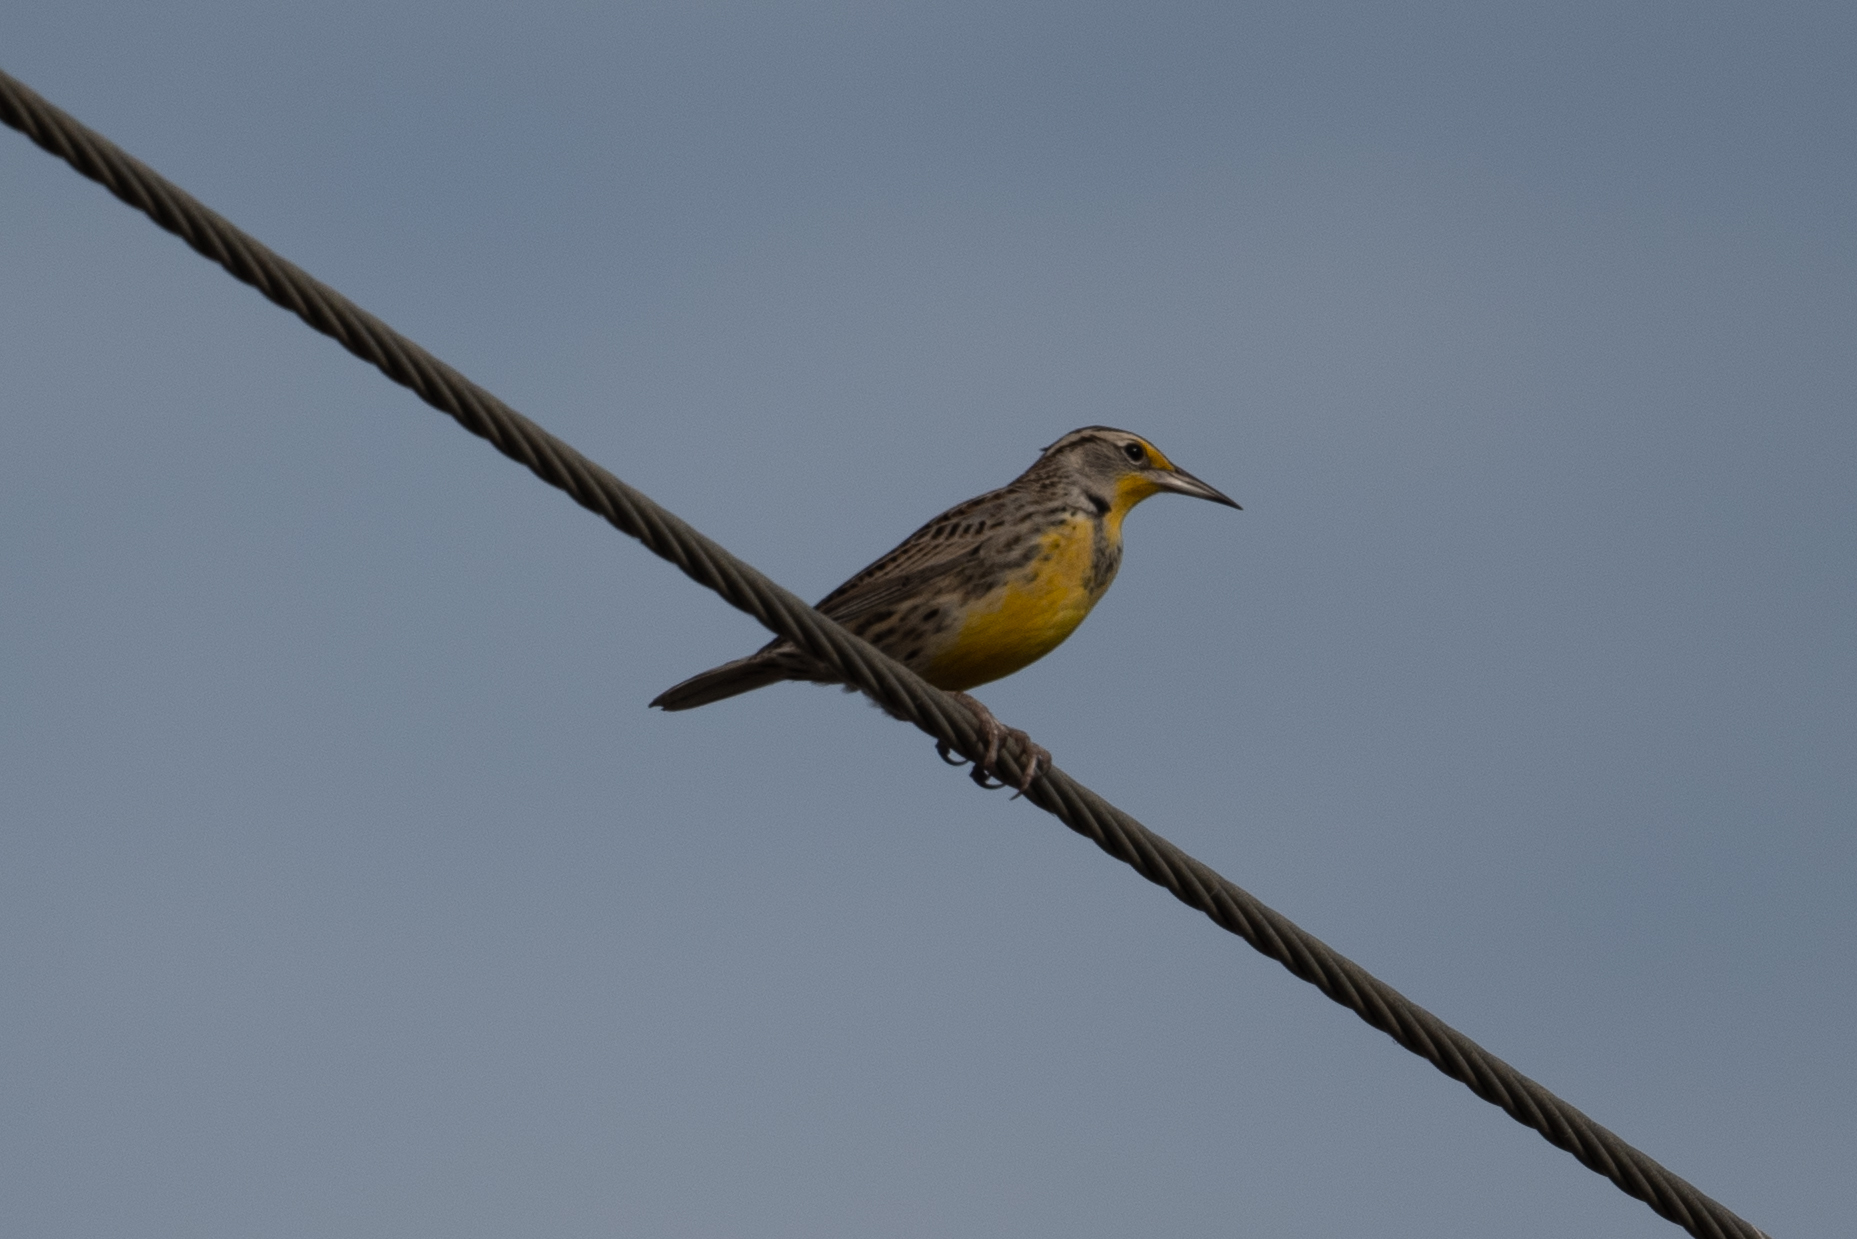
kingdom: Animalia
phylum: Chordata
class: Aves
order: Passeriformes
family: Icteridae
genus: Sturnella
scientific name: Sturnella neglecta
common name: Western meadowlark
